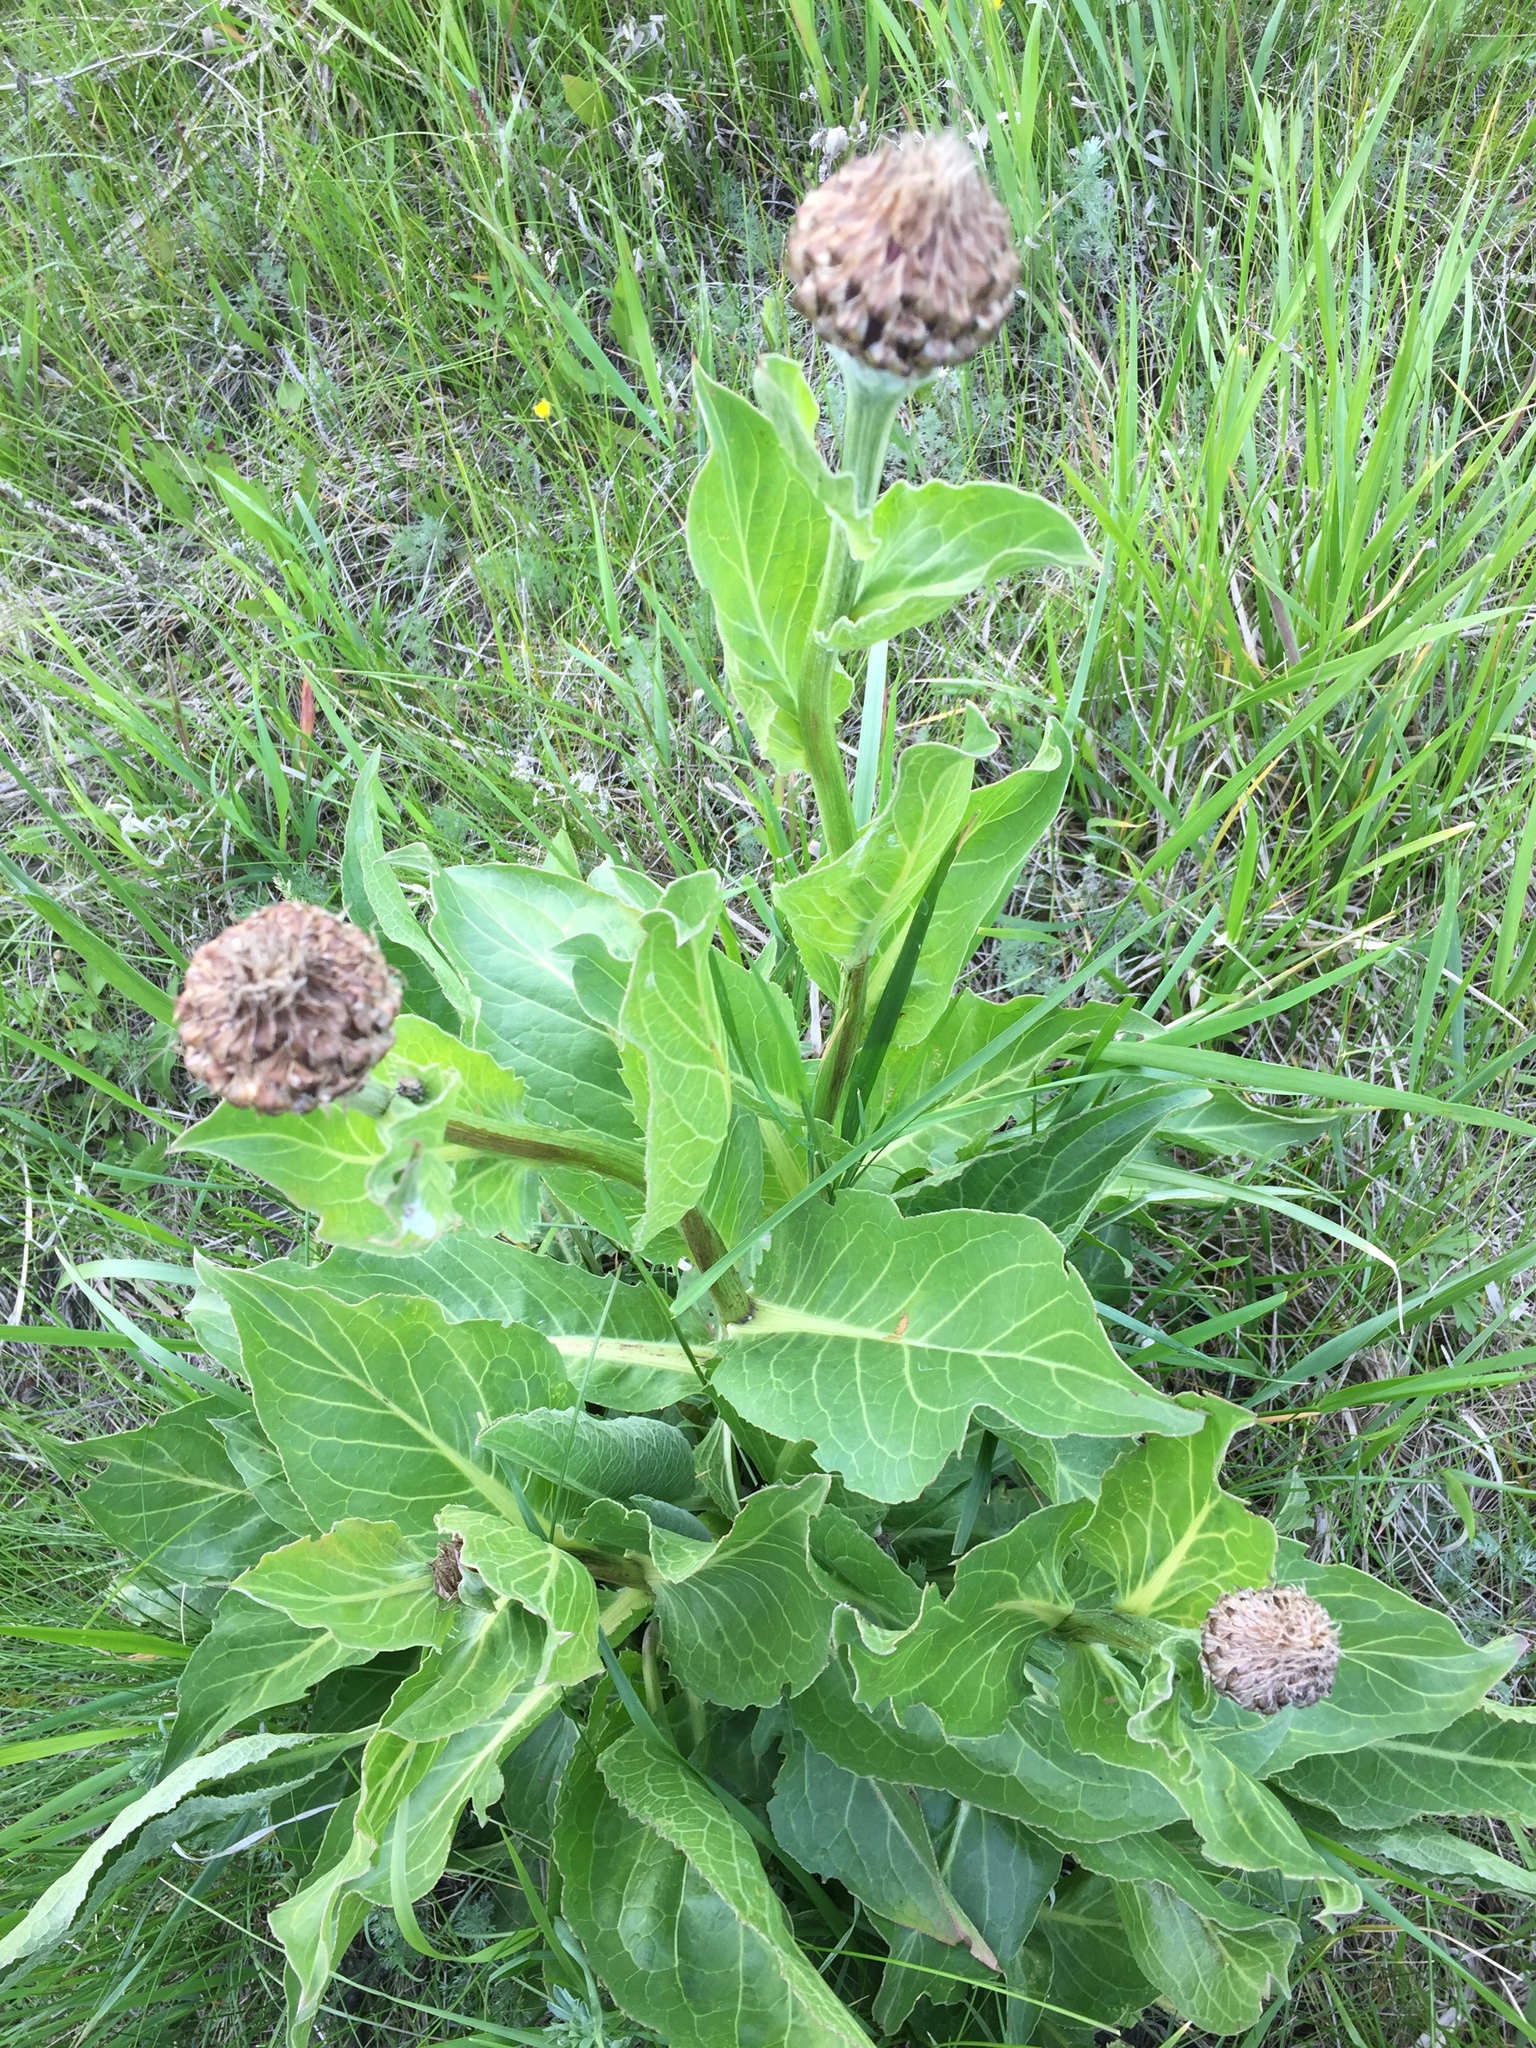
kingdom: Plantae
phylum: Tracheophyta
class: Magnoliopsida
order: Asterales
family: Asteraceae
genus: Leuzea
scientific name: Leuzea carthamoides
